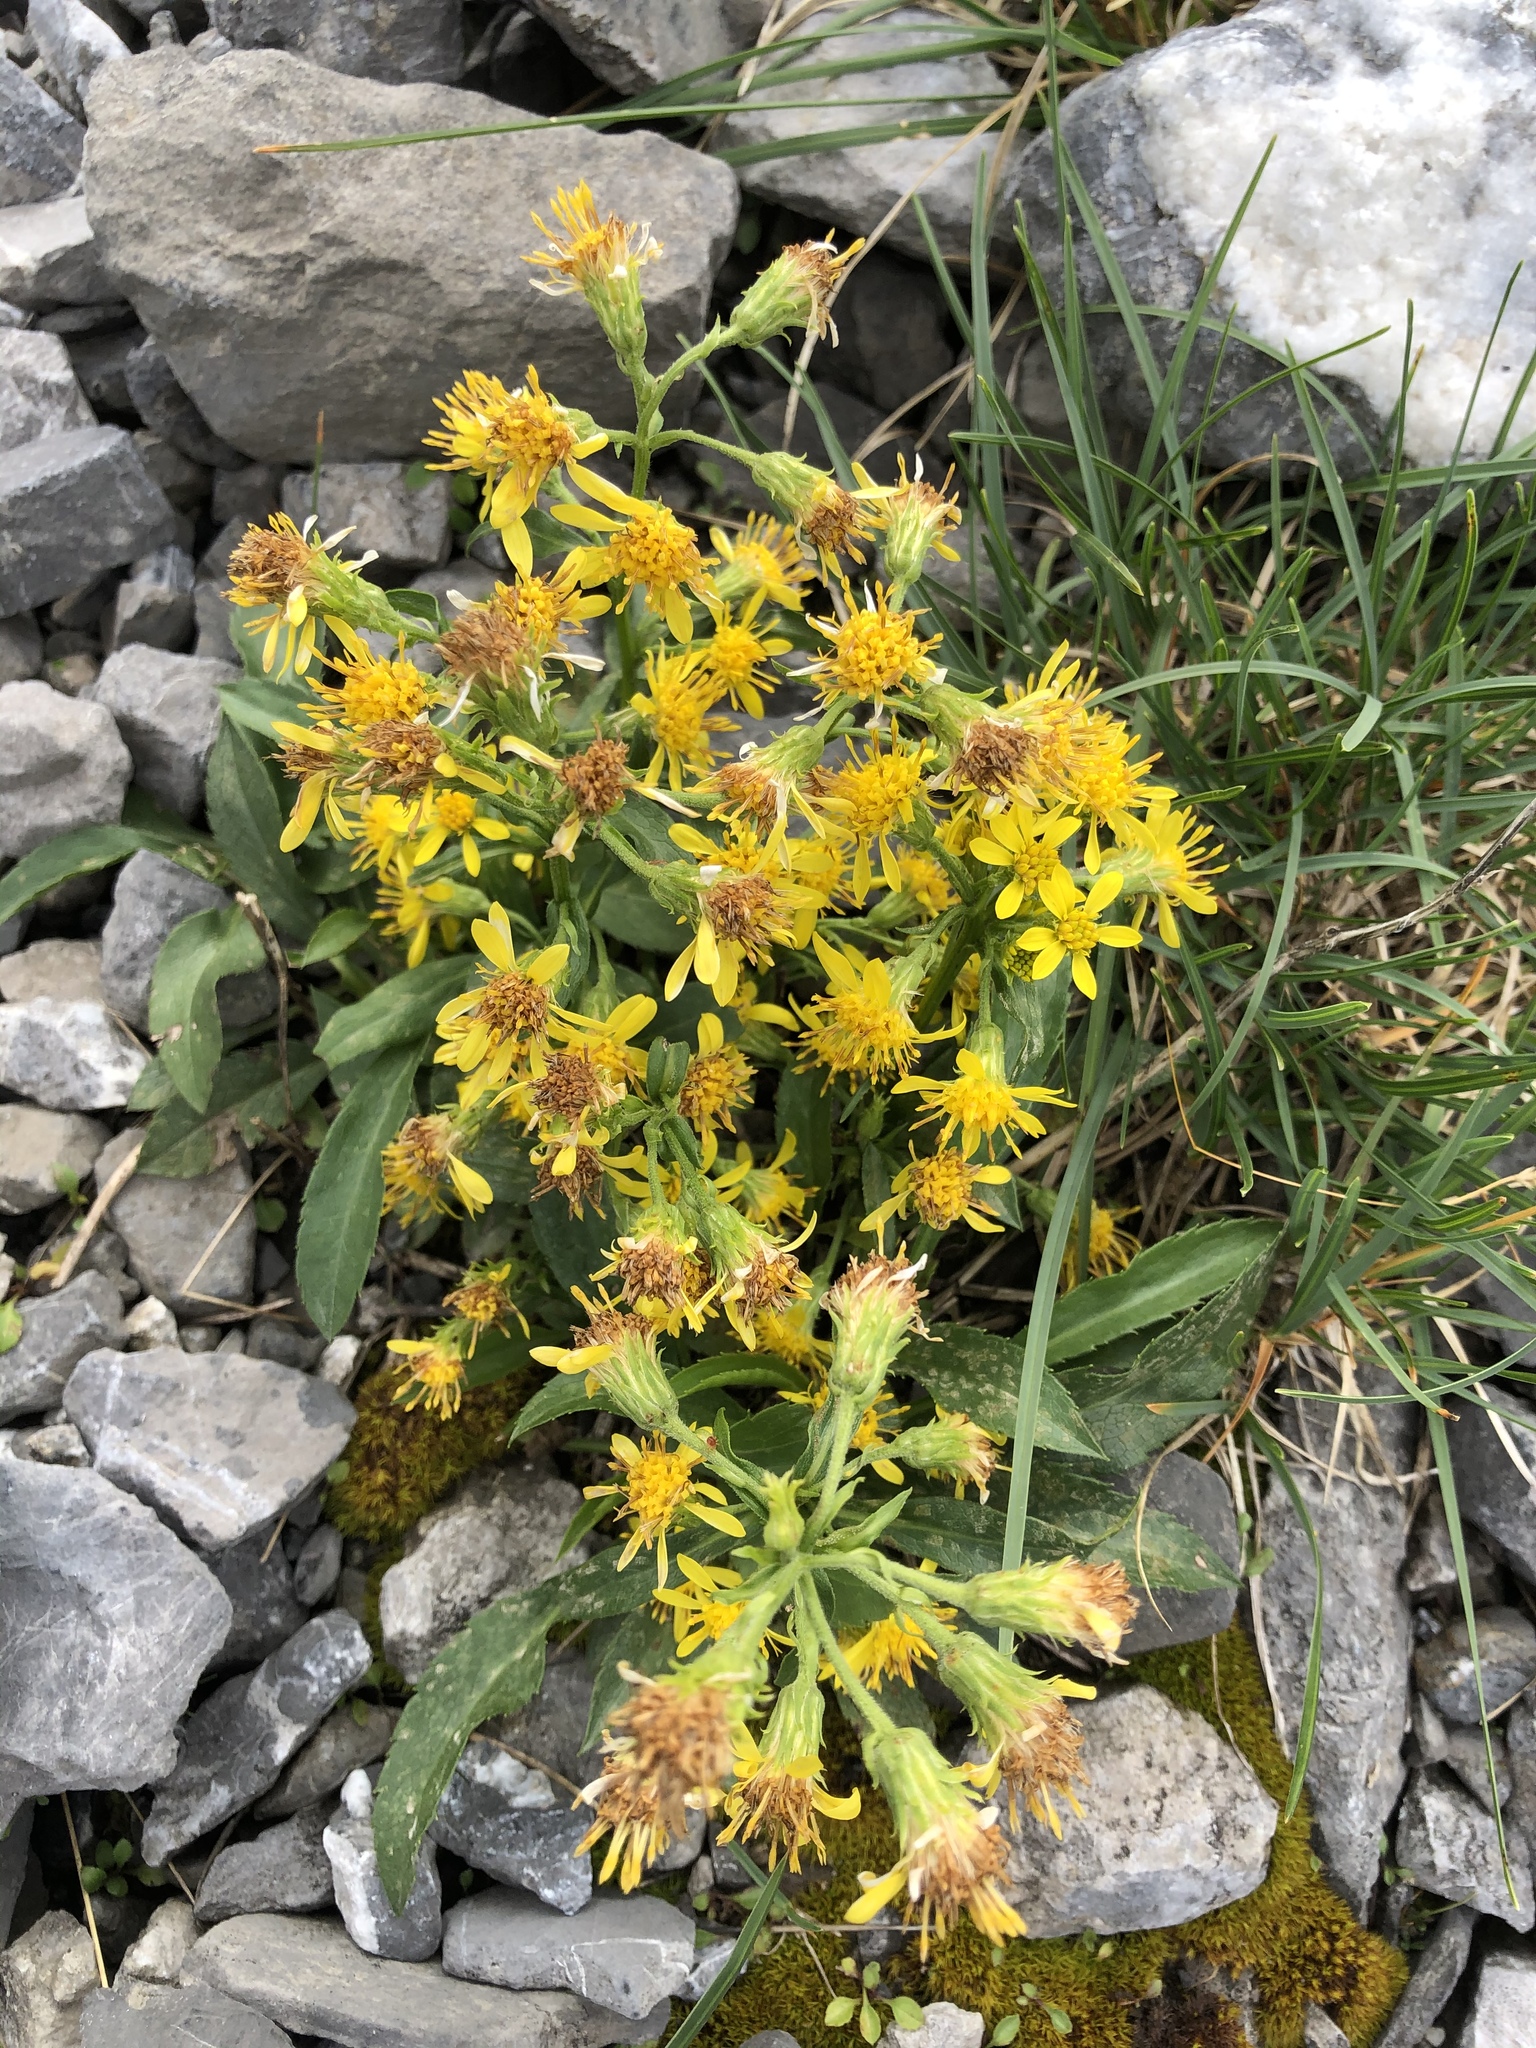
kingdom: Plantae
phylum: Tracheophyta
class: Magnoliopsida
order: Asterales
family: Asteraceae
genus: Solidago
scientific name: Solidago virgaurea
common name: Goldenrod
